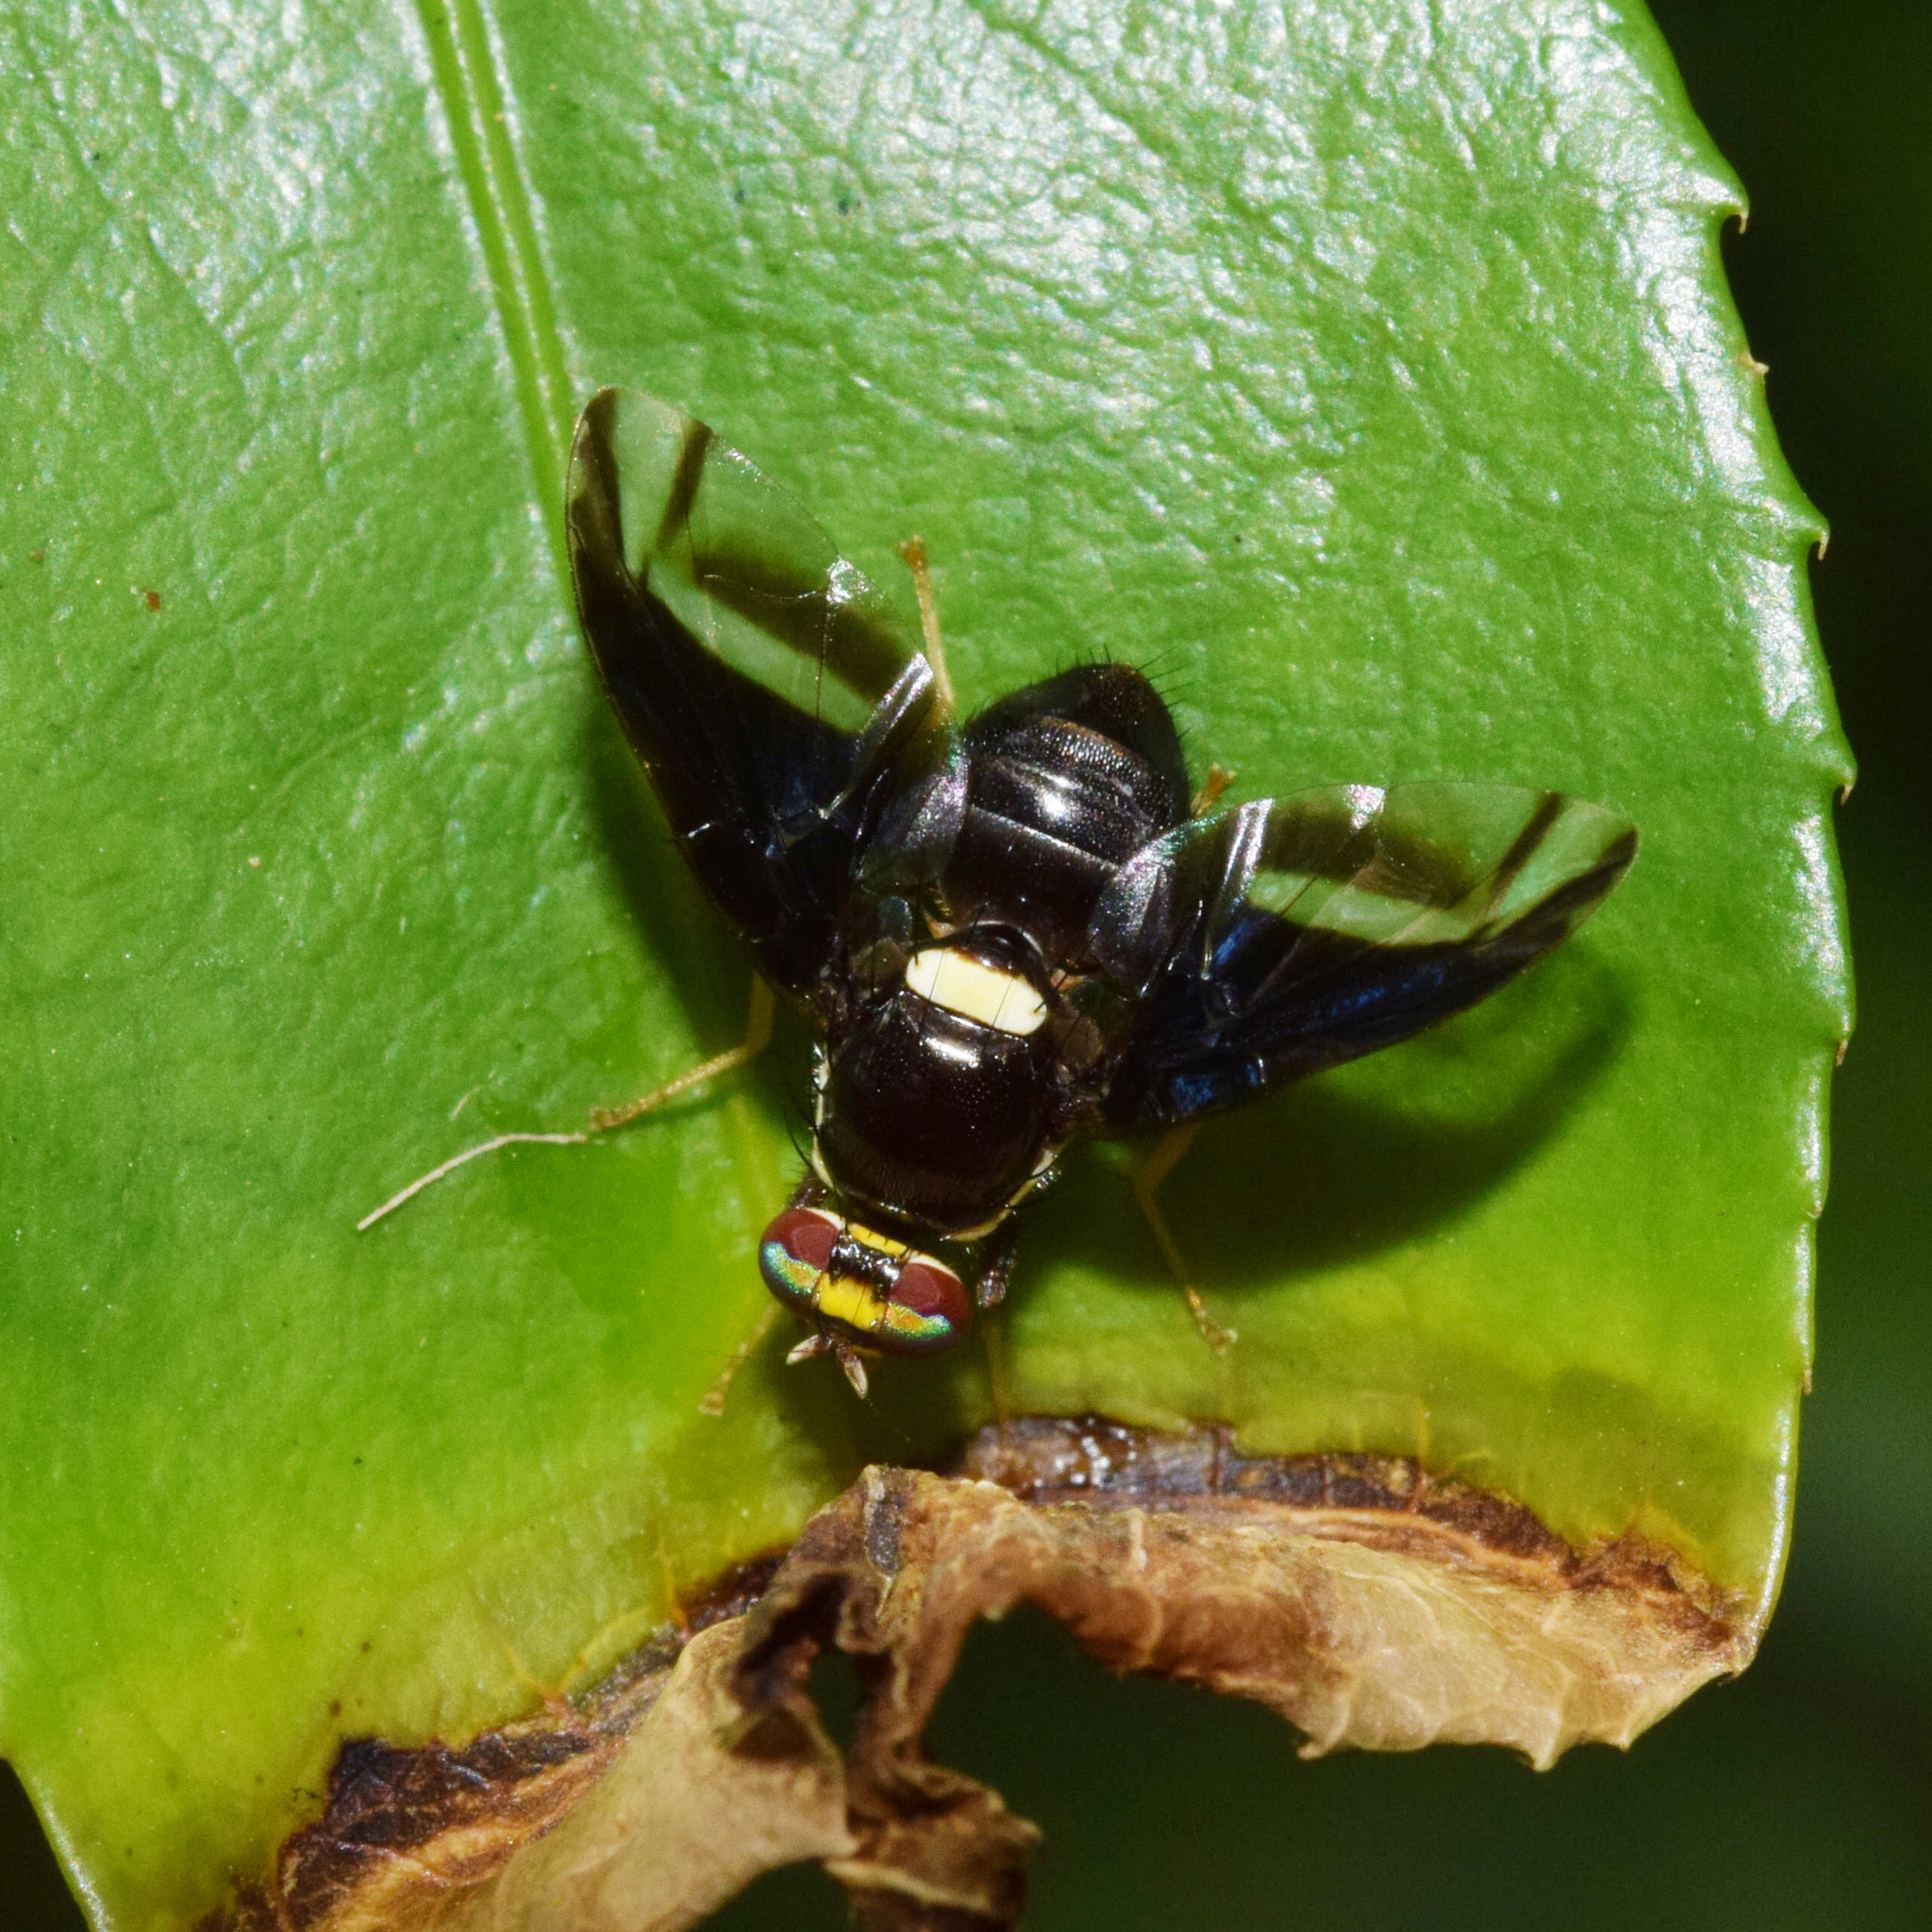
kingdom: Animalia
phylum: Arthropoda
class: Insecta
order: Diptera
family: Tephritidae
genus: Carpophthoromyia
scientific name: Carpophthoromyia dimidiata
